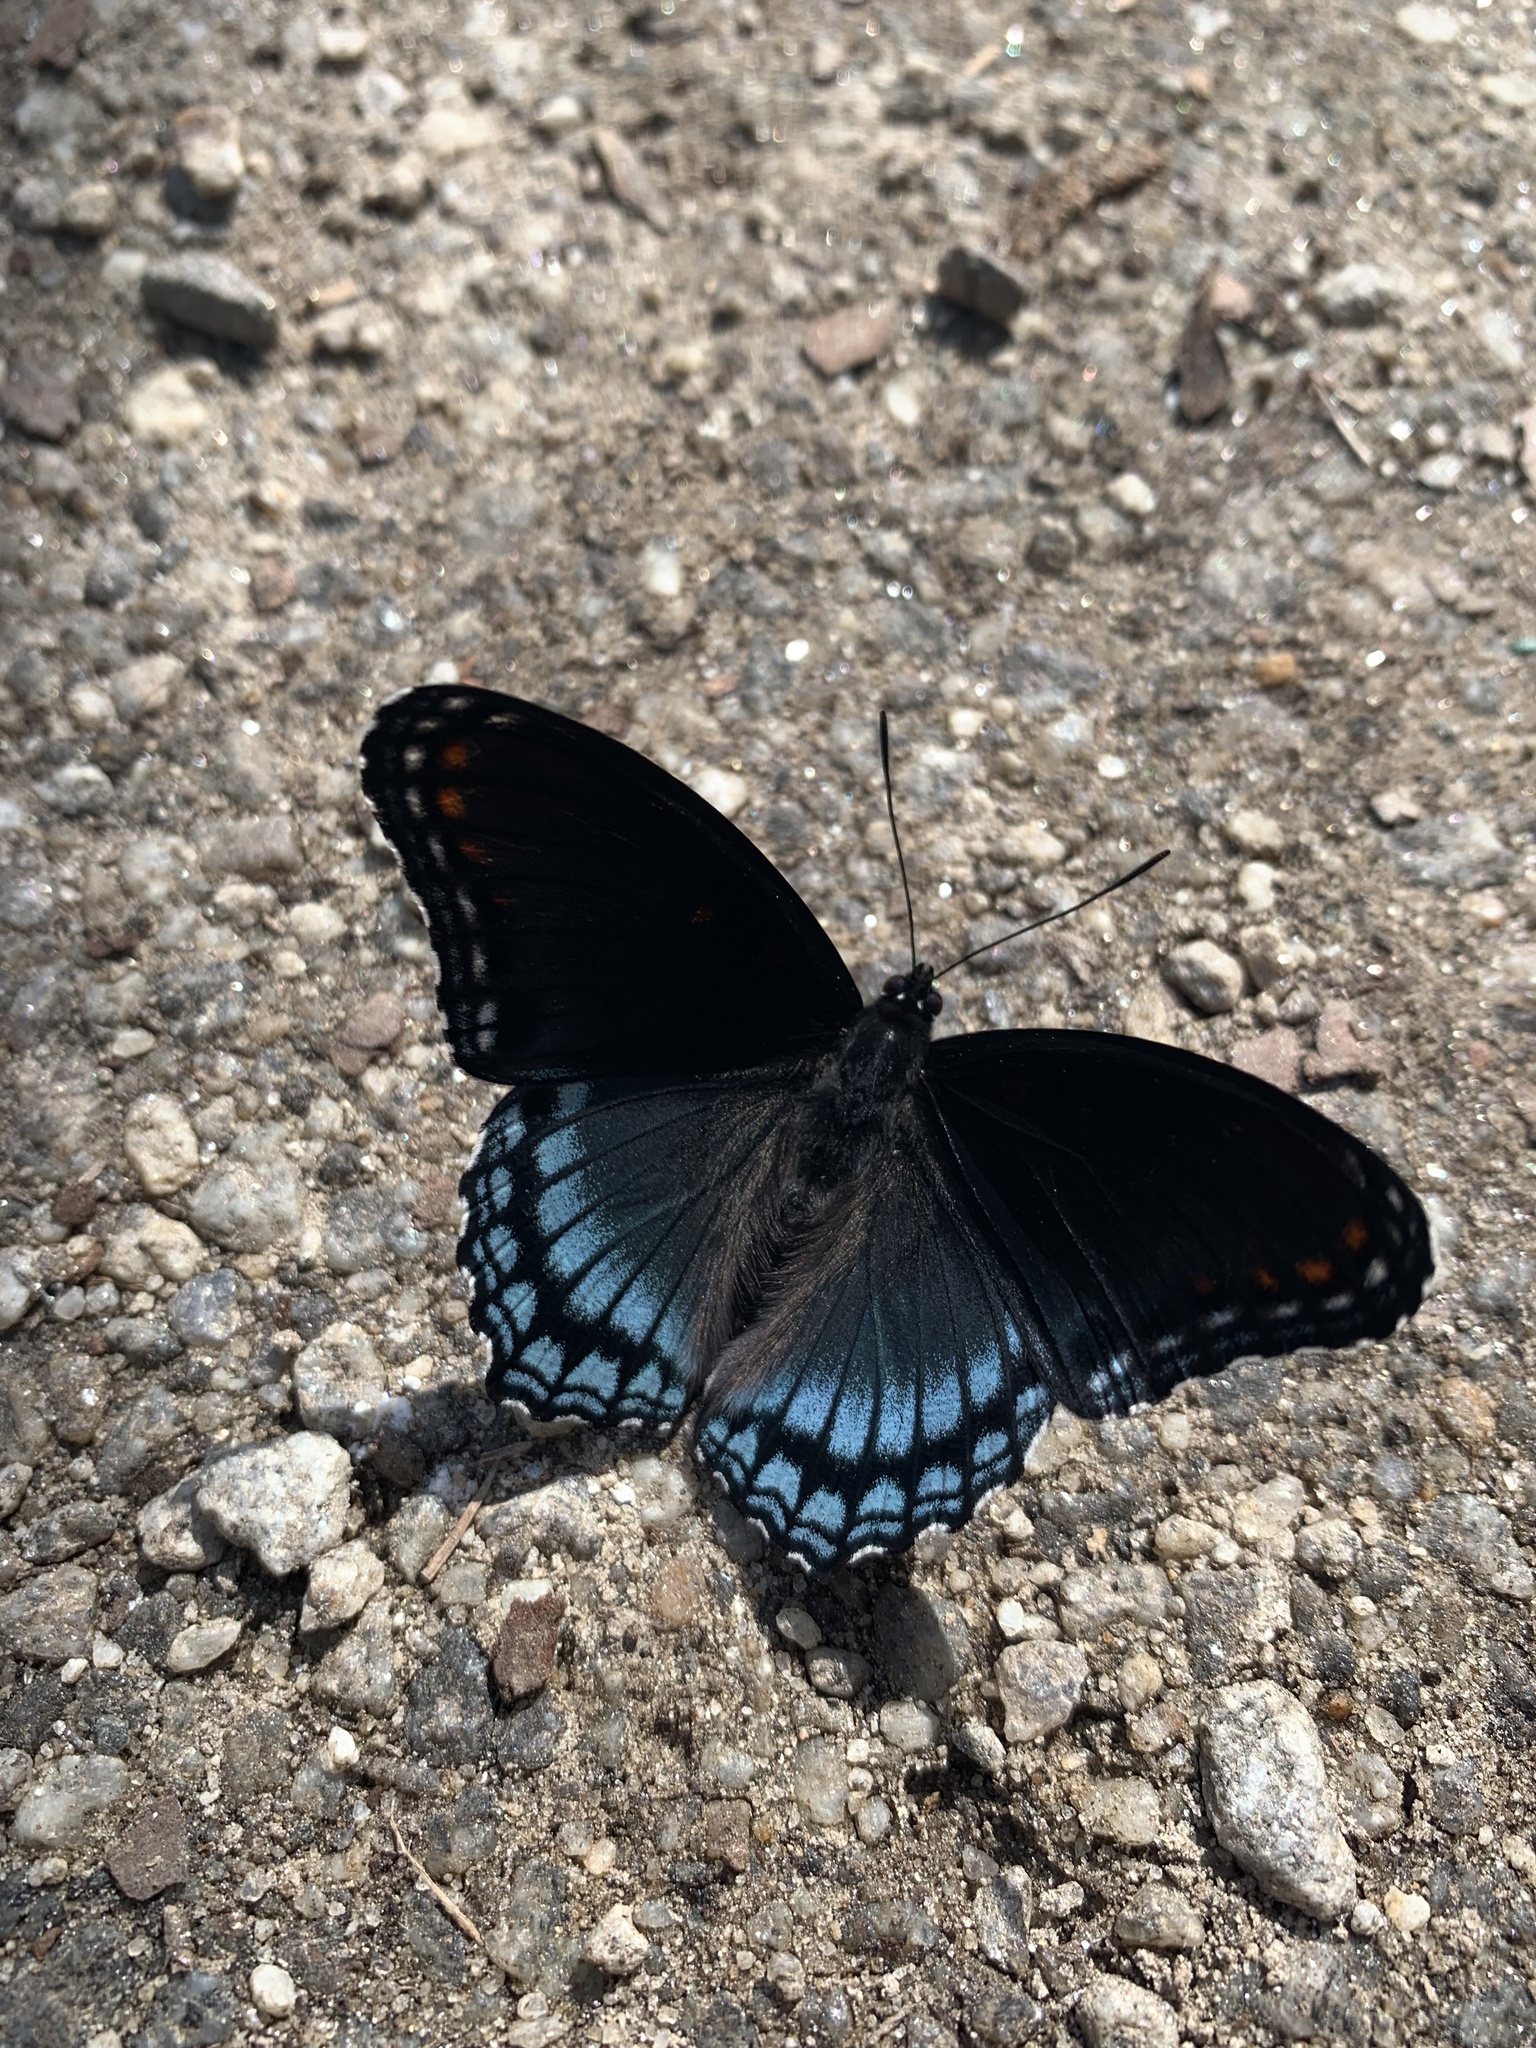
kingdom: Animalia
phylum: Arthropoda
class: Insecta
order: Lepidoptera
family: Nymphalidae
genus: Limenitis
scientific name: Limenitis astyanax
